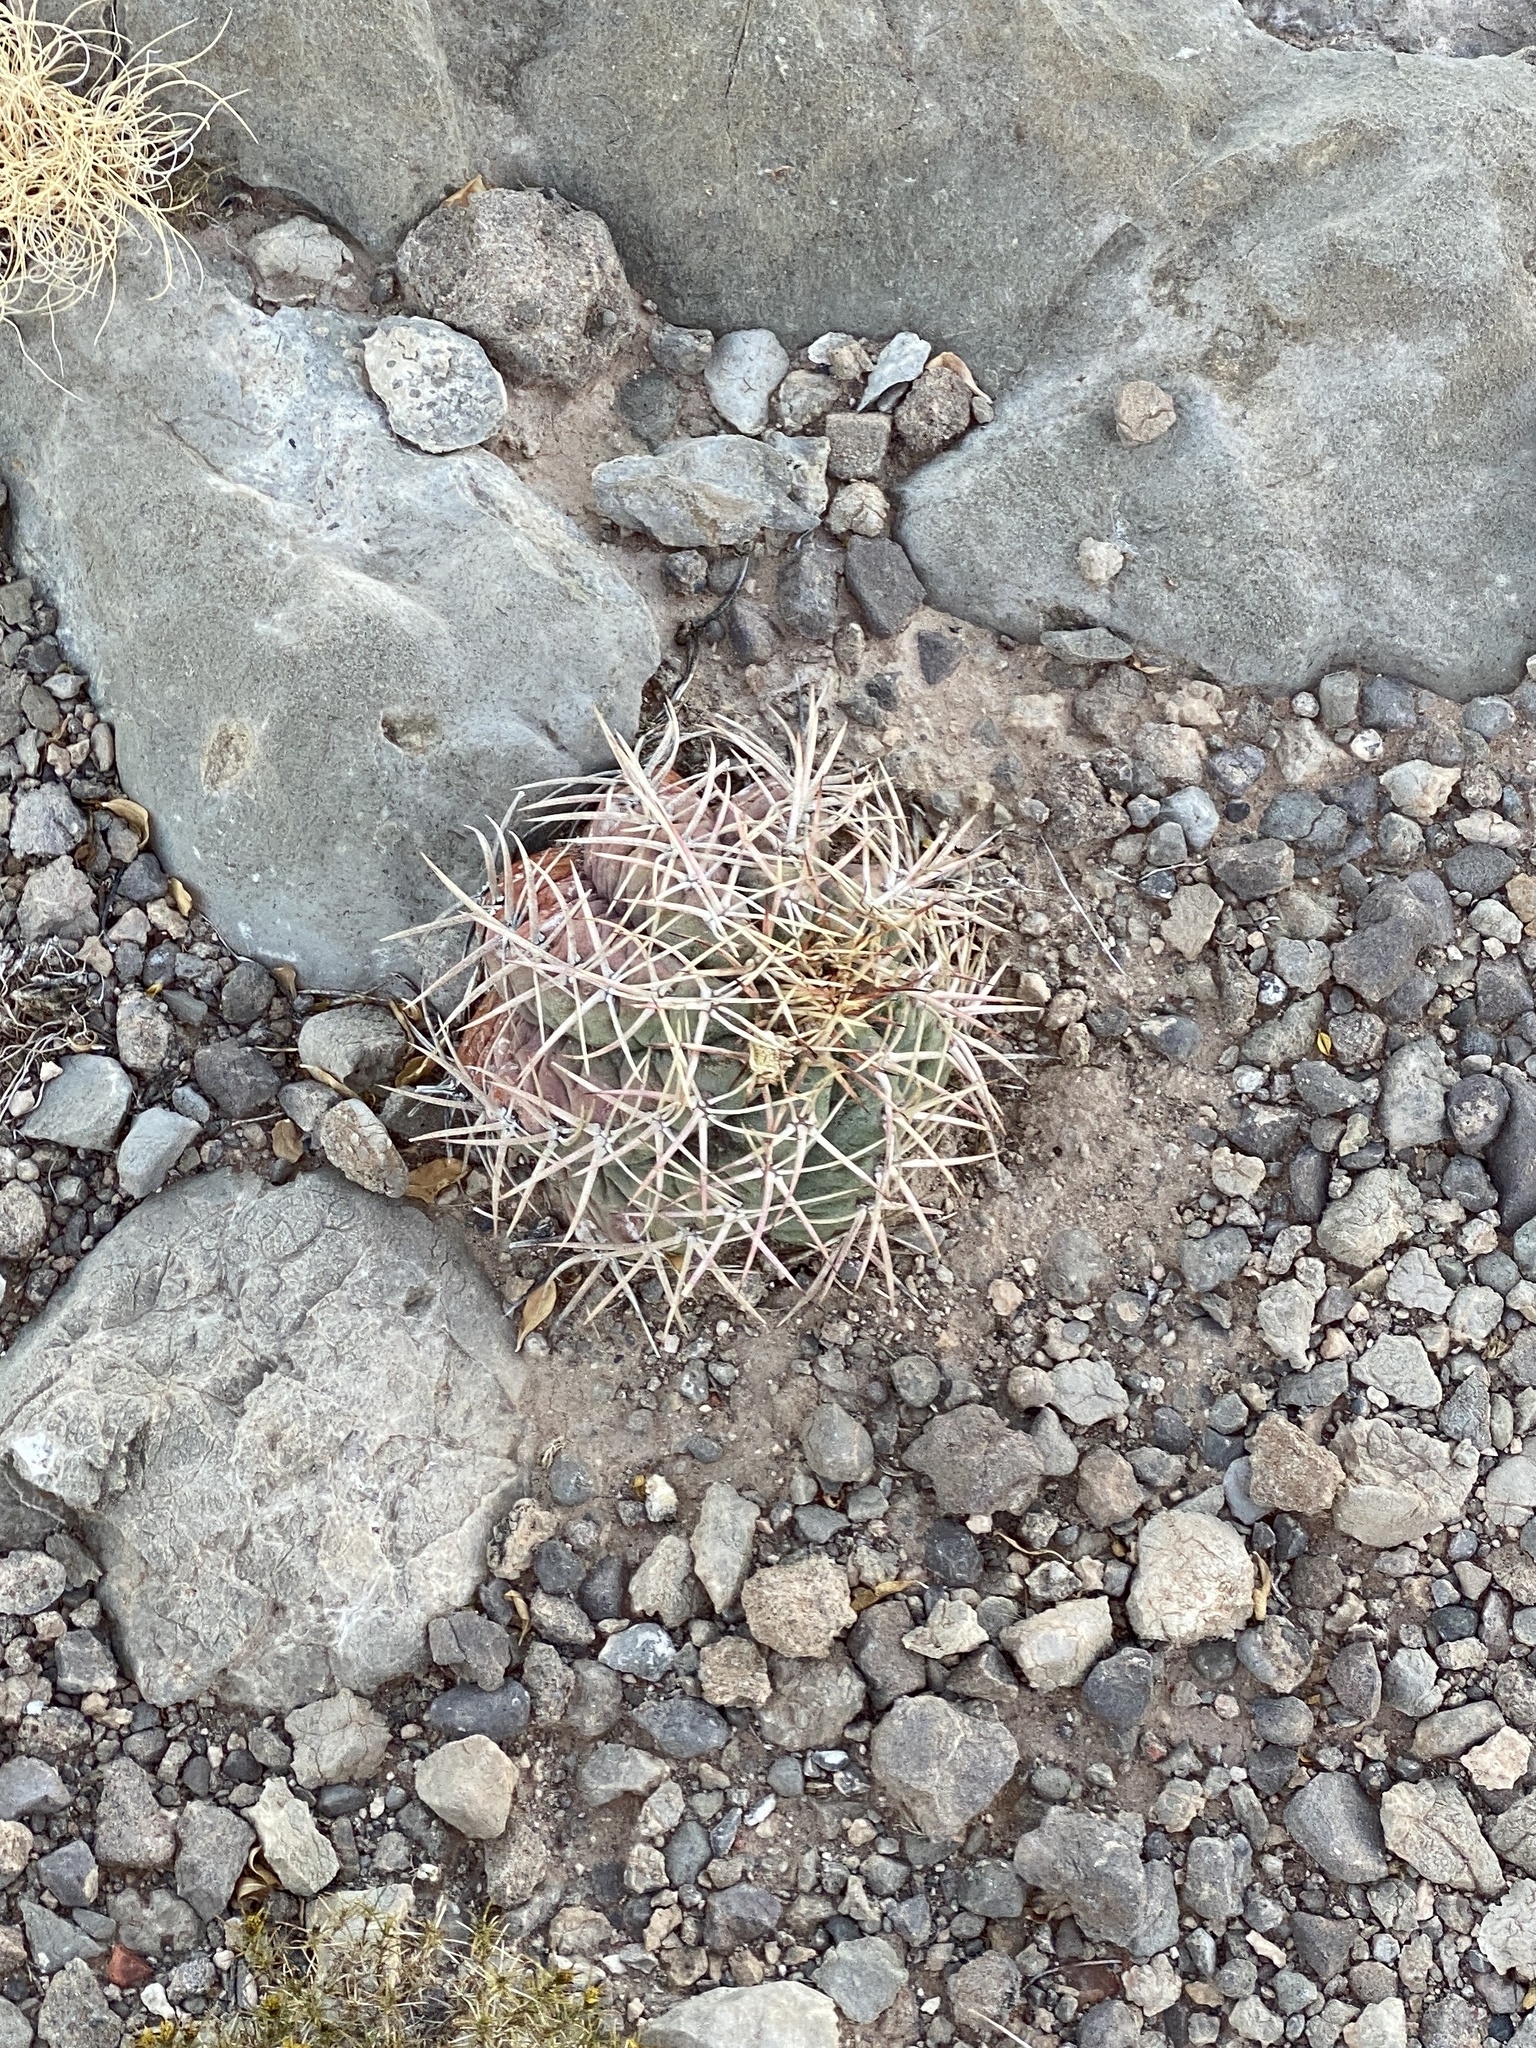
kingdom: Plantae
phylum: Tracheophyta
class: Magnoliopsida
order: Caryophyllales
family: Cactaceae
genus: Echinocactus
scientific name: Echinocactus horizonthalonius
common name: Devilshead
